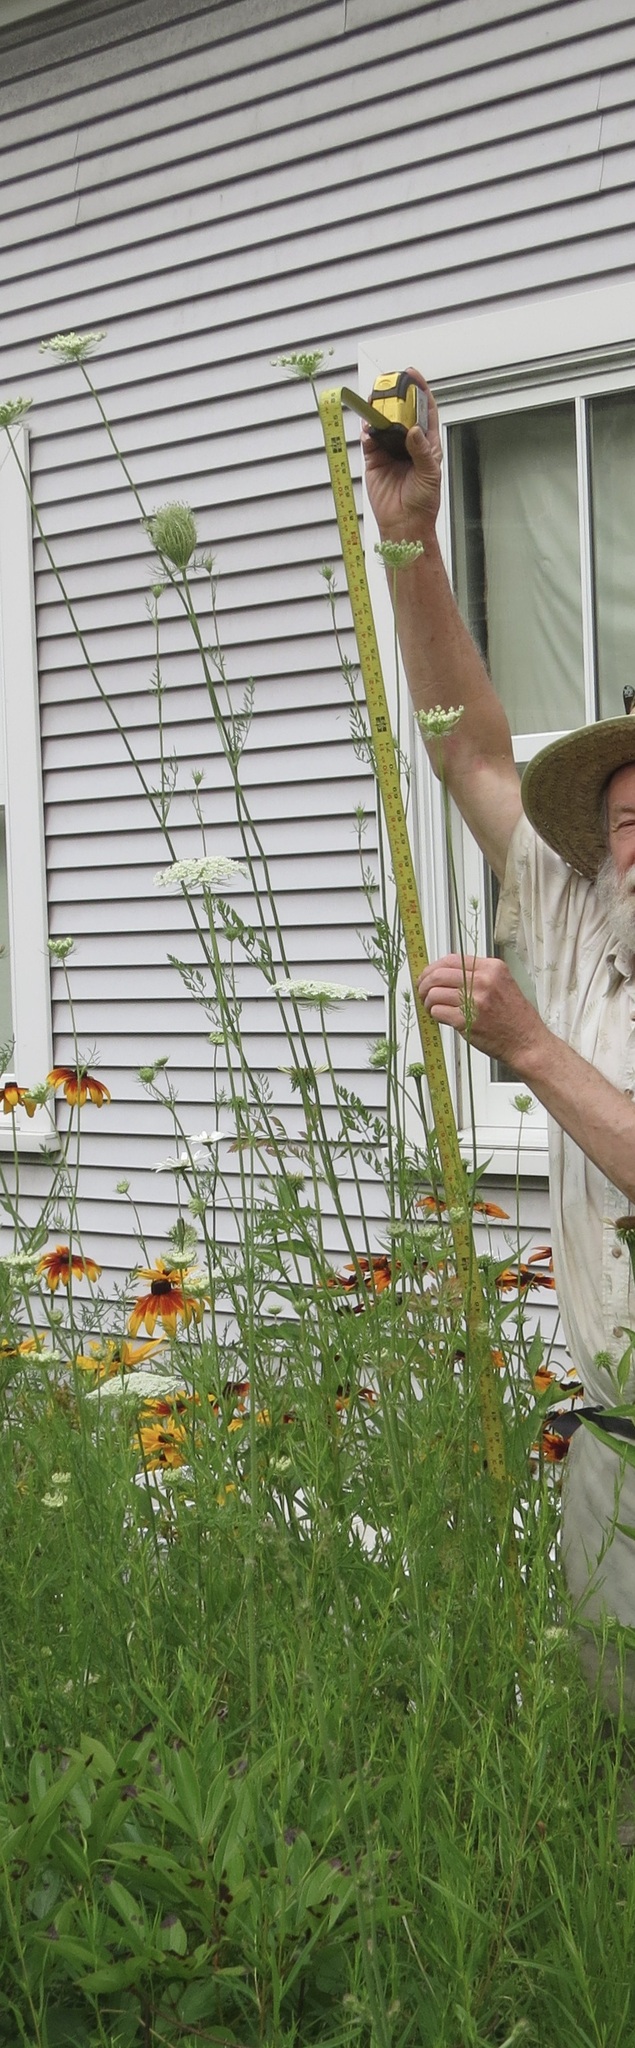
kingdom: Plantae
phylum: Tracheophyta
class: Magnoliopsida
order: Apiales
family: Apiaceae
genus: Daucus
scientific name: Daucus carota
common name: Wild carrot
